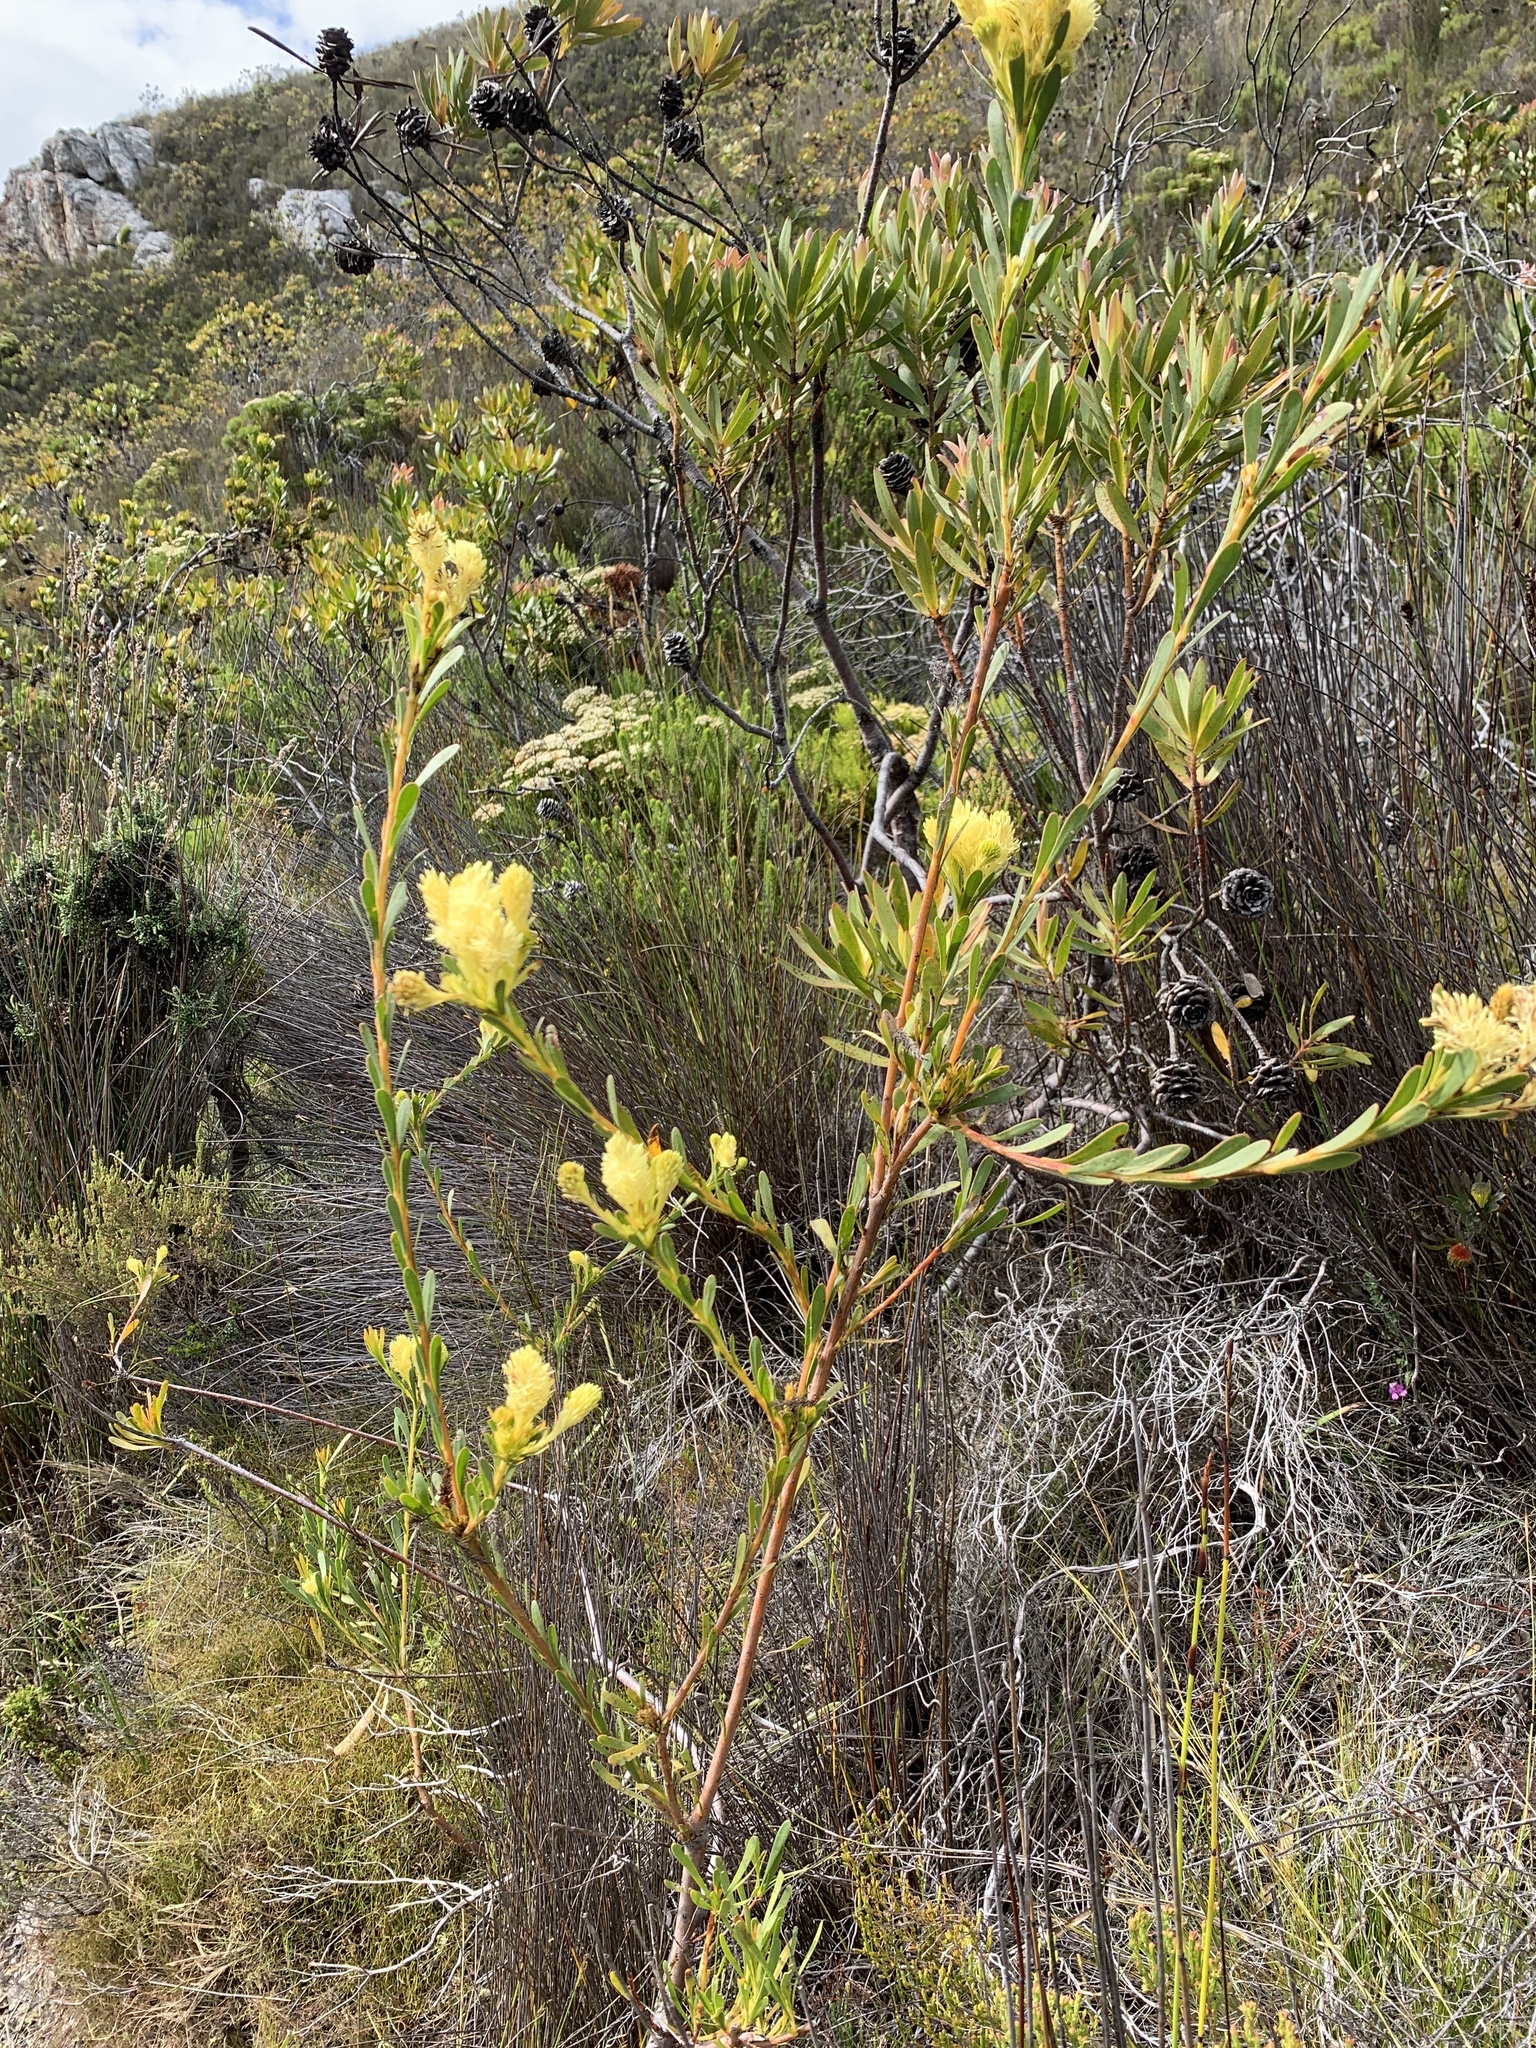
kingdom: Plantae
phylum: Tracheophyta
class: Magnoliopsida
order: Proteales
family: Proteaceae
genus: Aulax
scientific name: Aulax umbellata
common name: Broad-leaf featherbush
